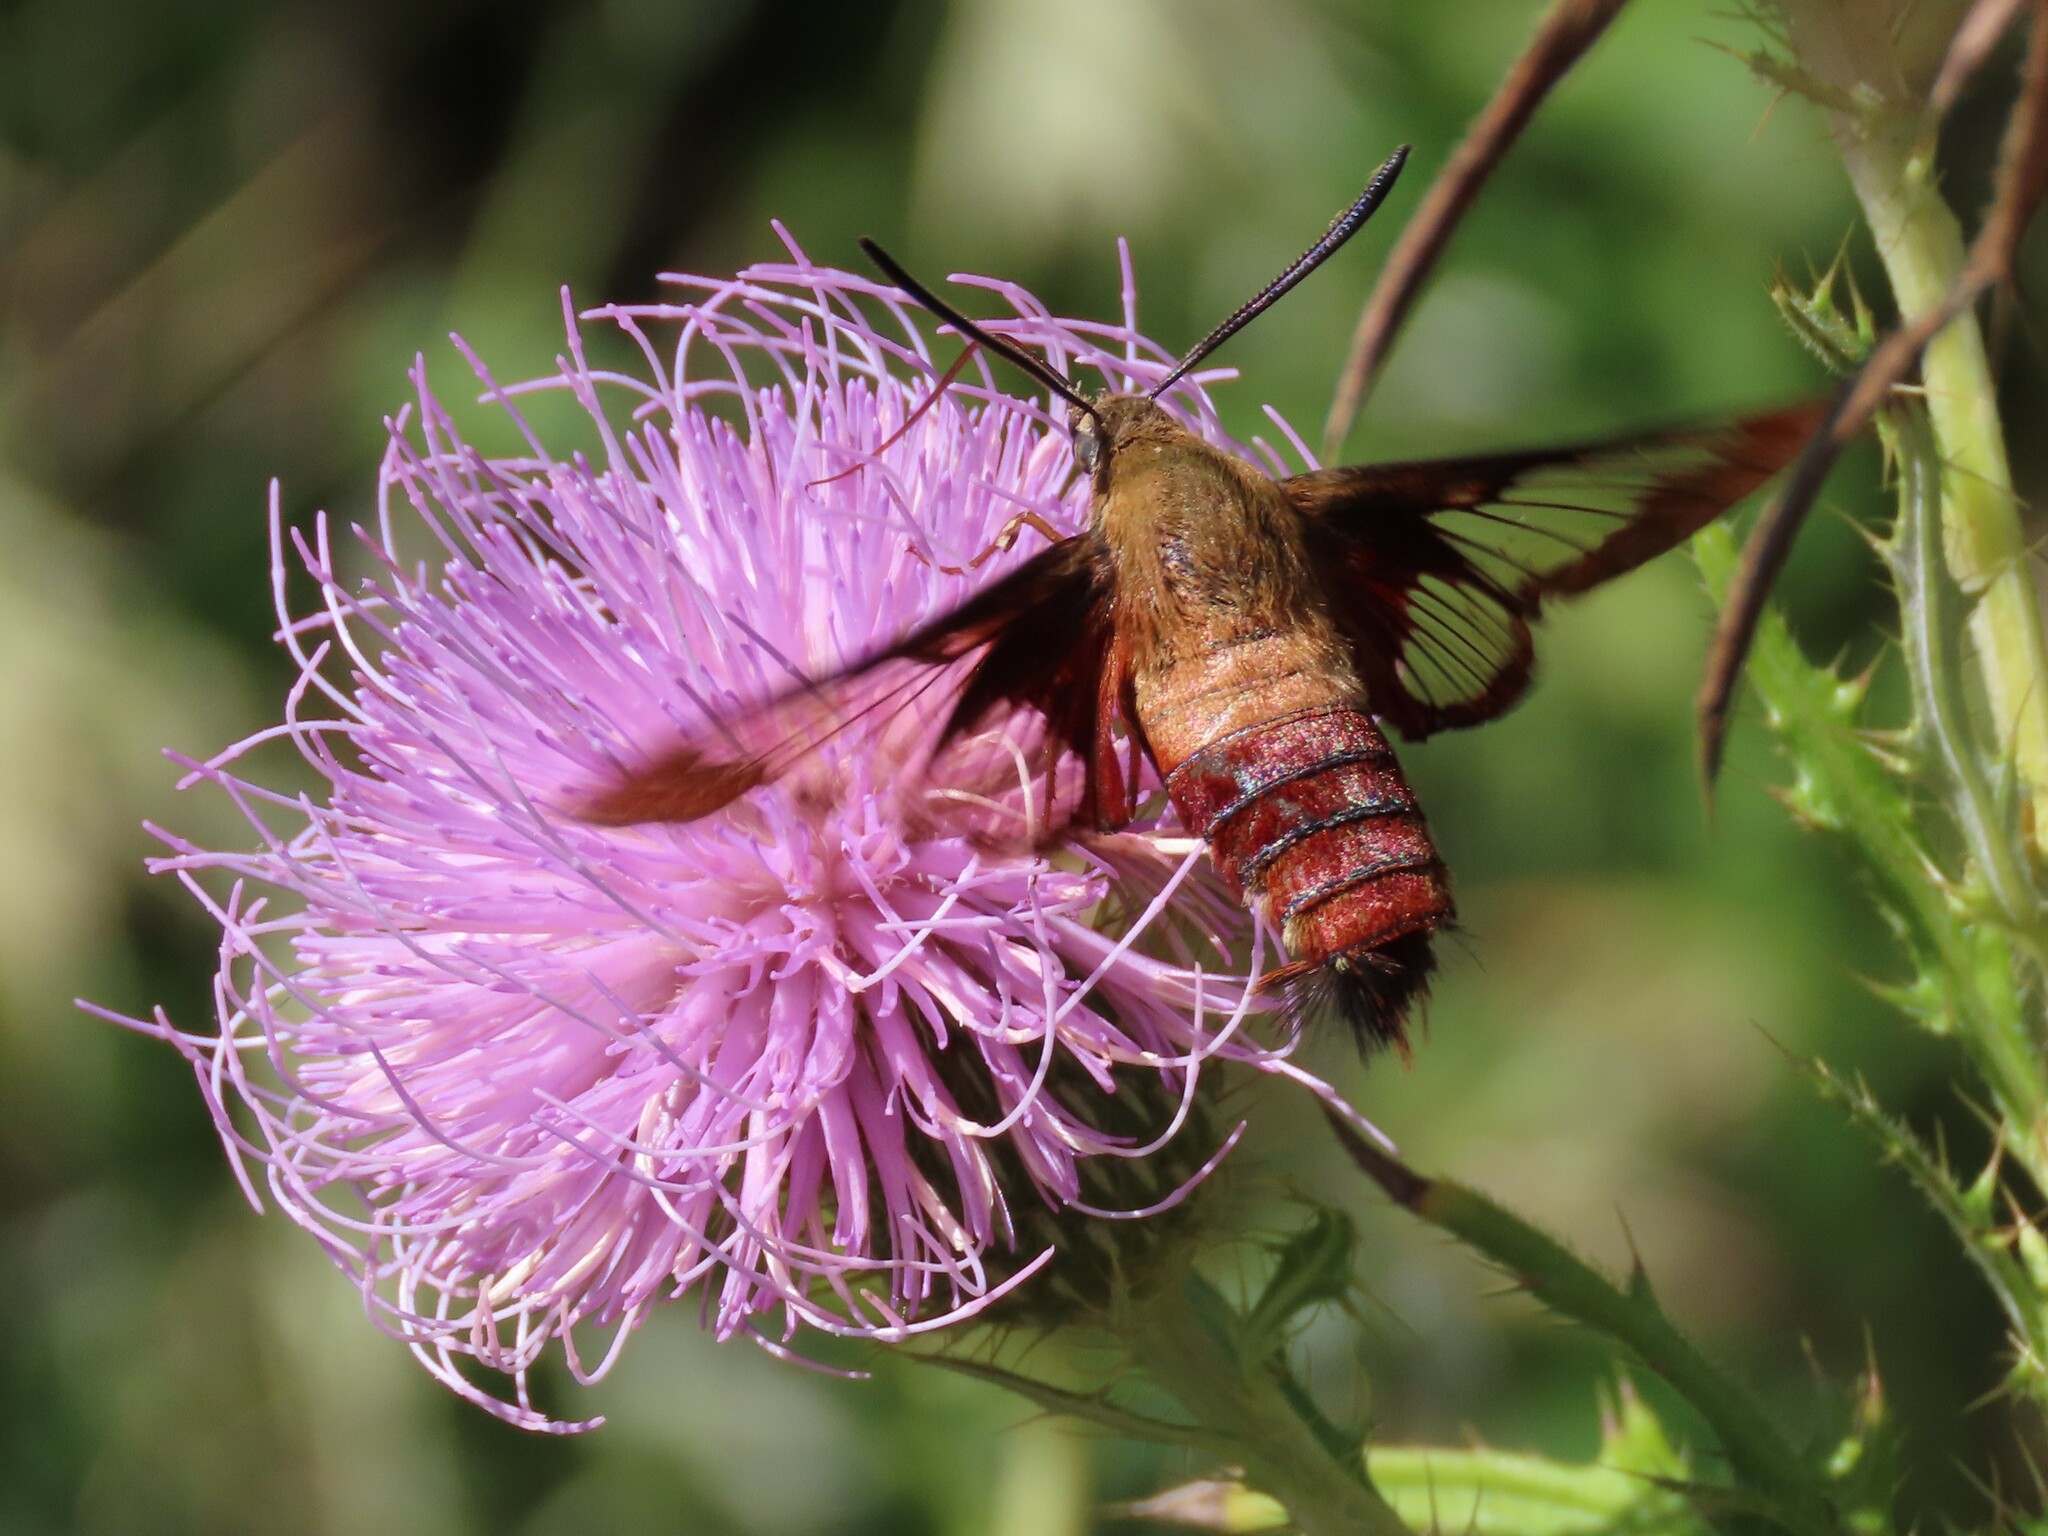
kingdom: Animalia
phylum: Arthropoda
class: Insecta
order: Lepidoptera
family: Sphingidae
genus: Hemaris
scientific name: Hemaris thysbe
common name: Common clear-wing
